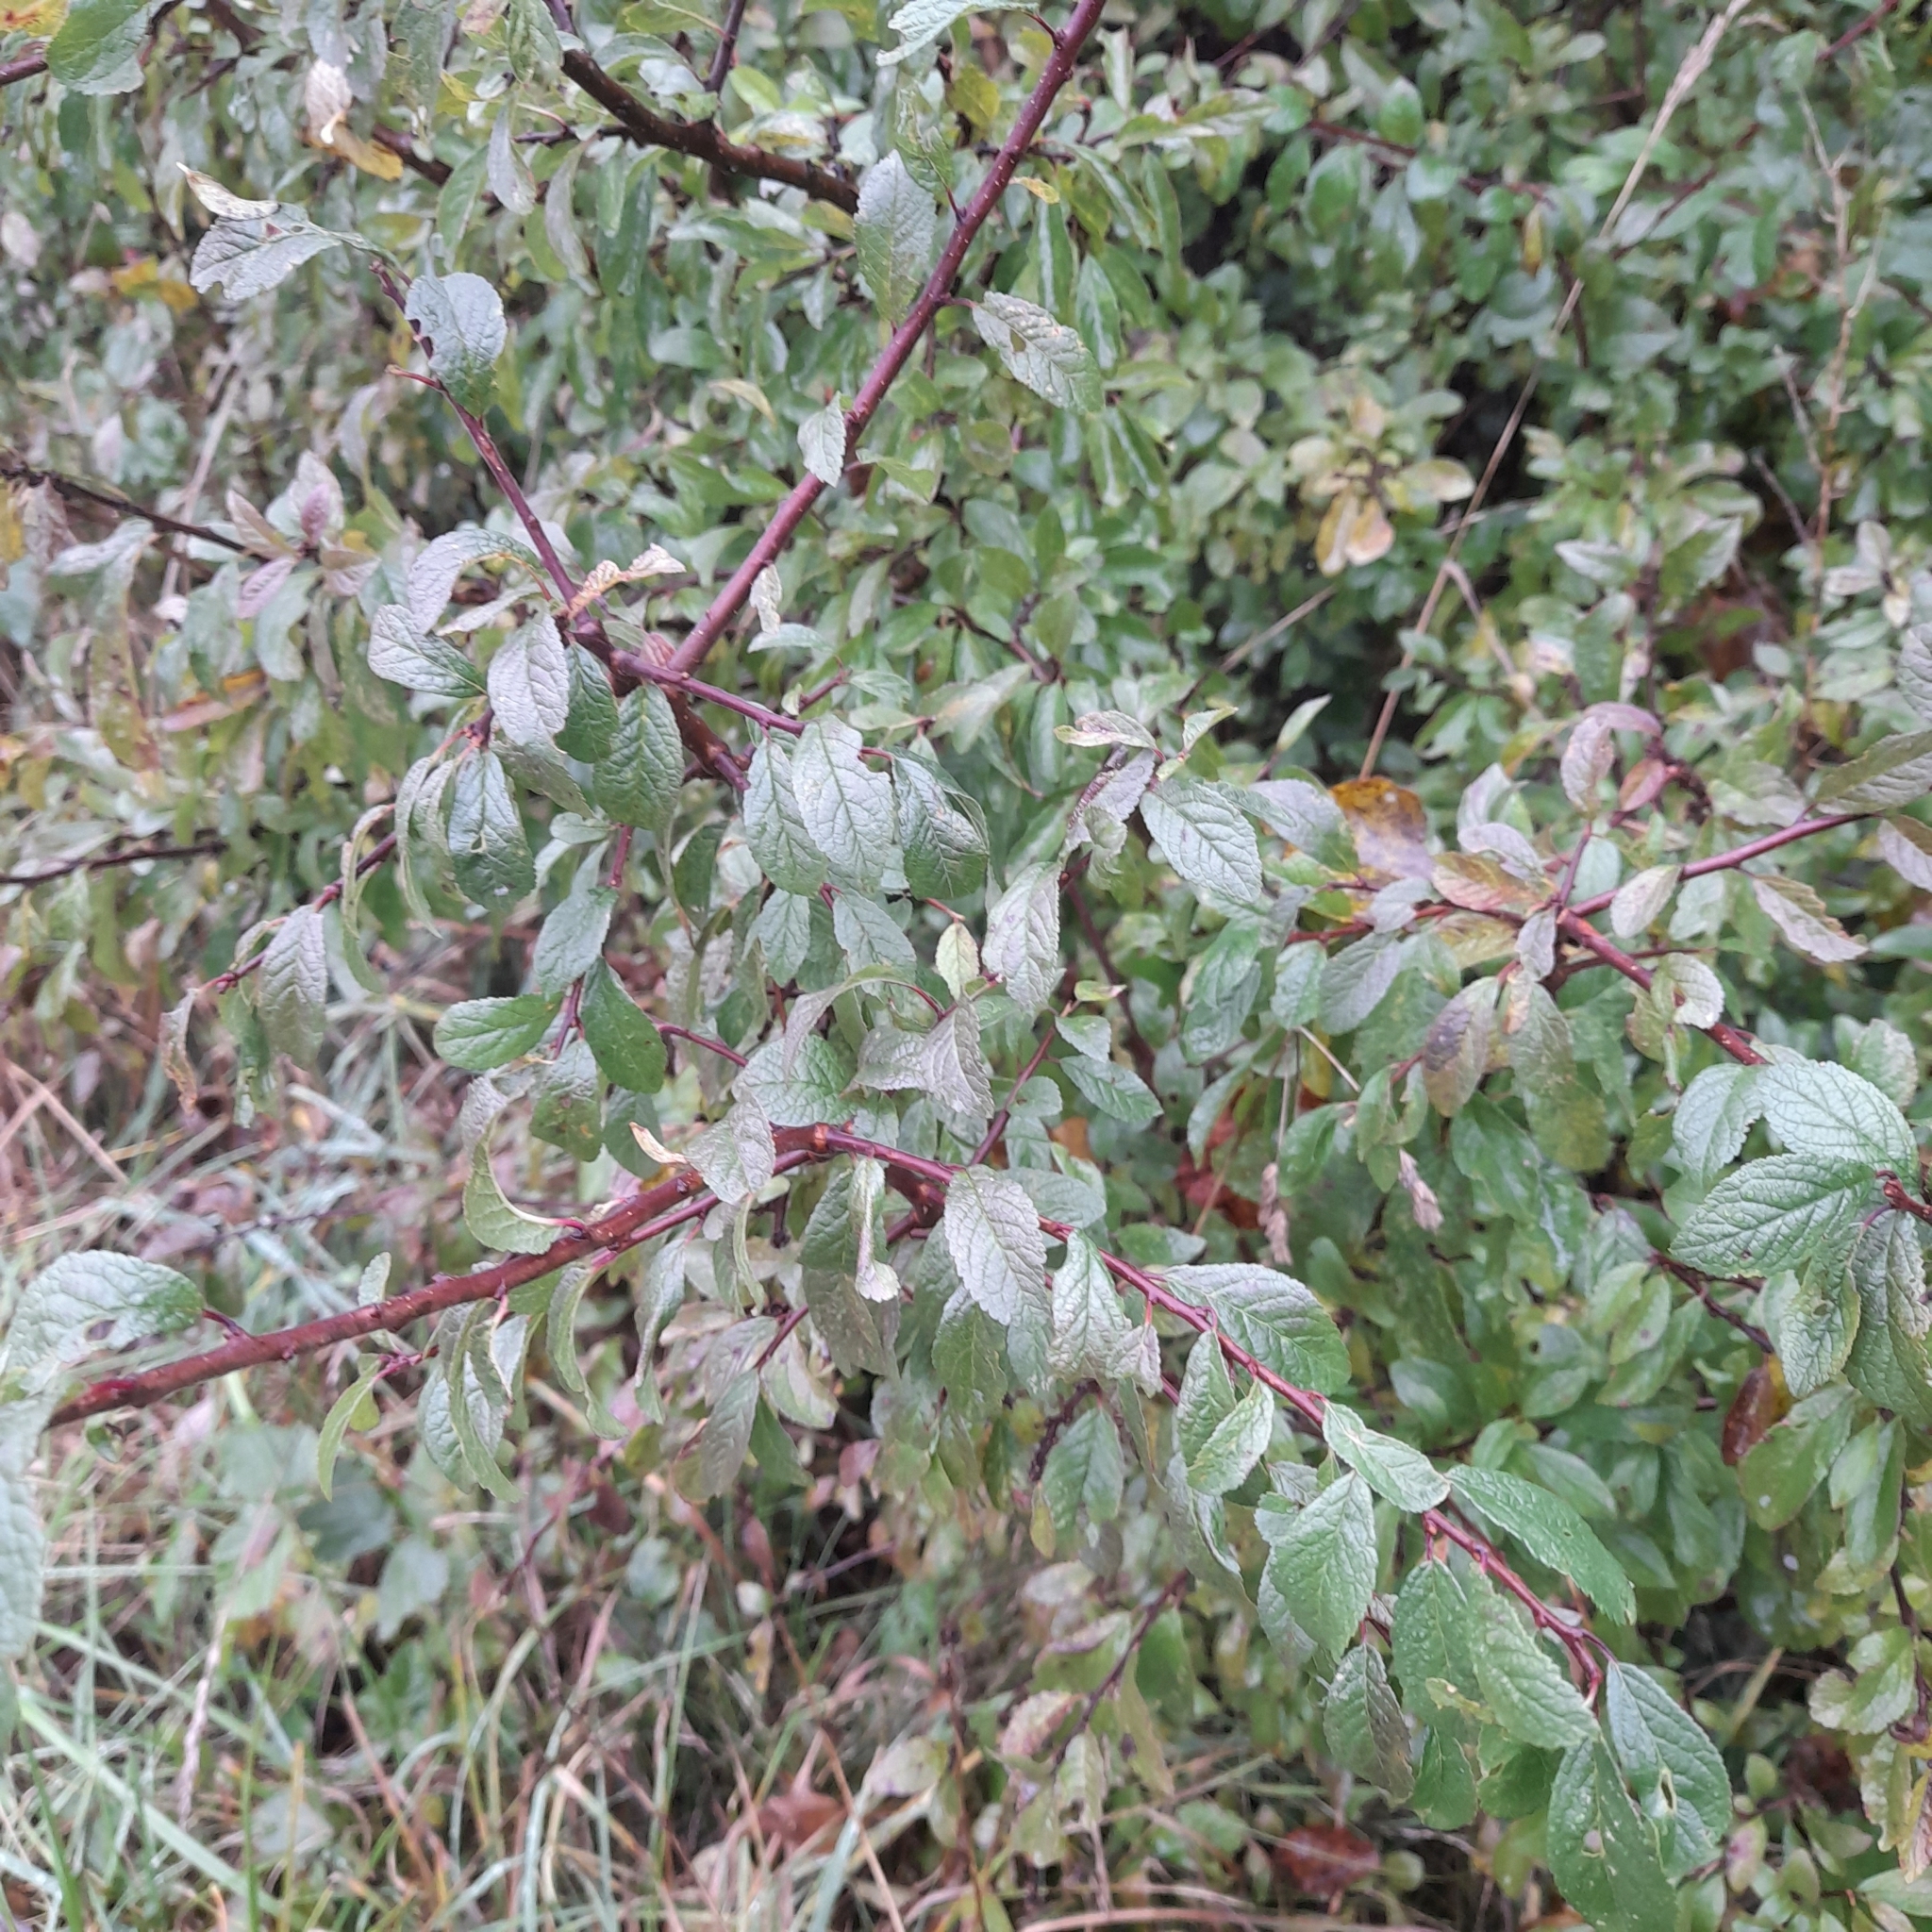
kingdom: Plantae
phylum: Tracheophyta
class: Magnoliopsida
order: Rosales
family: Rosaceae
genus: Prunus
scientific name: Prunus spinosa
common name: Blackthorn
